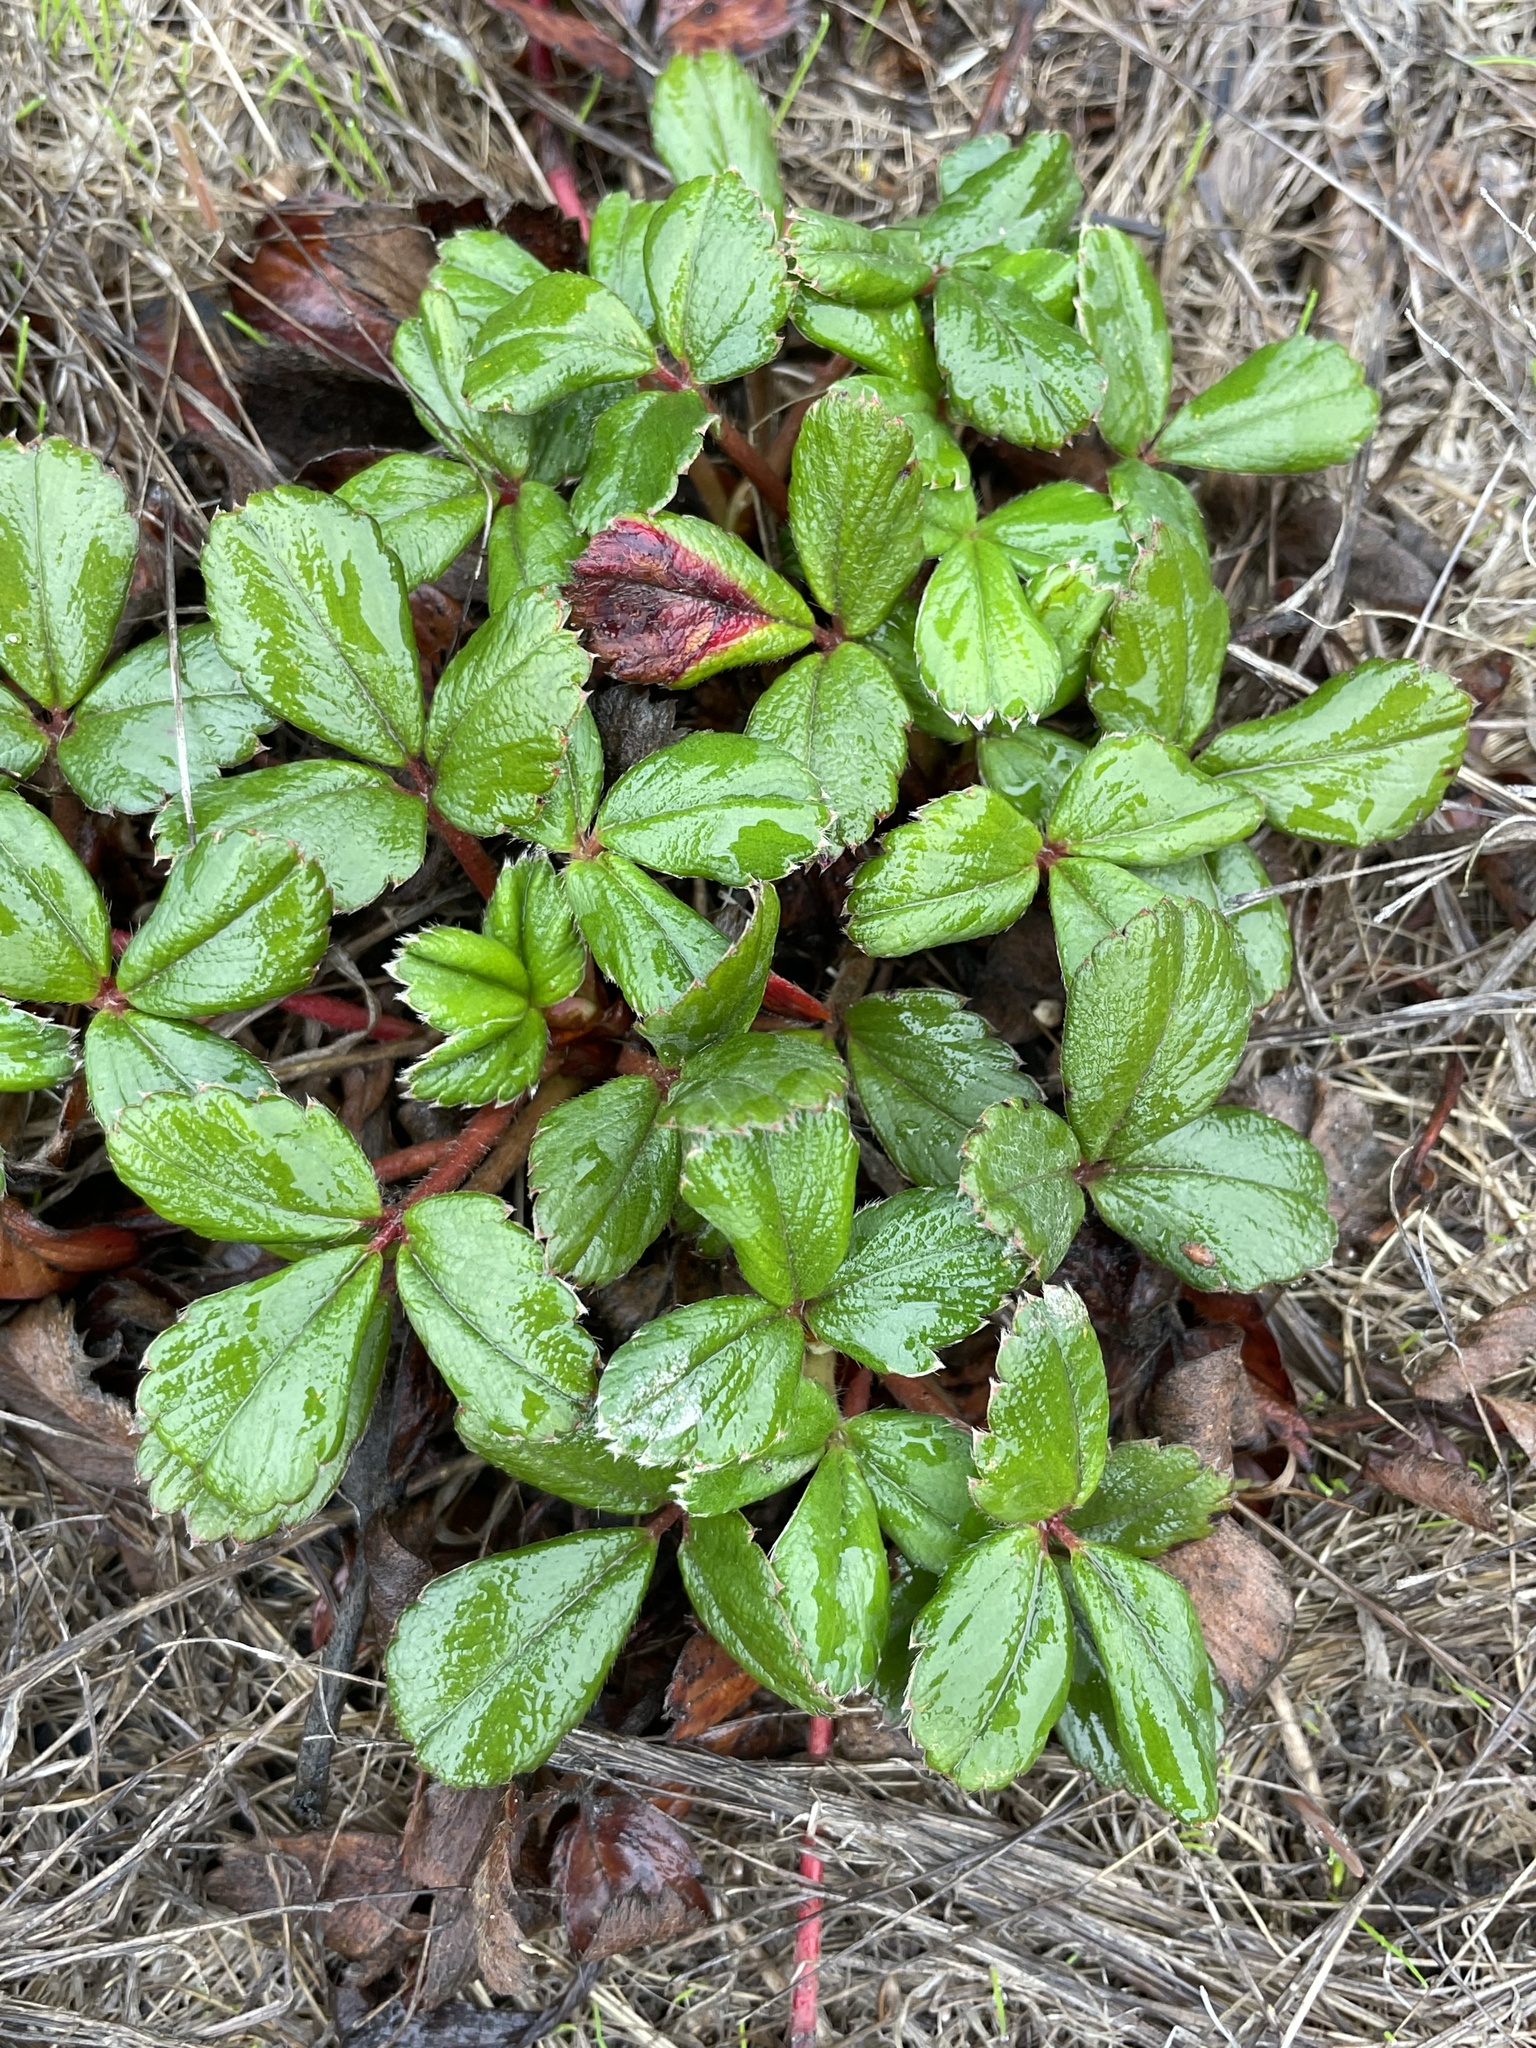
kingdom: Plantae
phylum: Tracheophyta
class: Magnoliopsida
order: Rosales
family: Rosaceae
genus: Fragaria
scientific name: Fragaria chiloensis
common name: Beach strawberry
